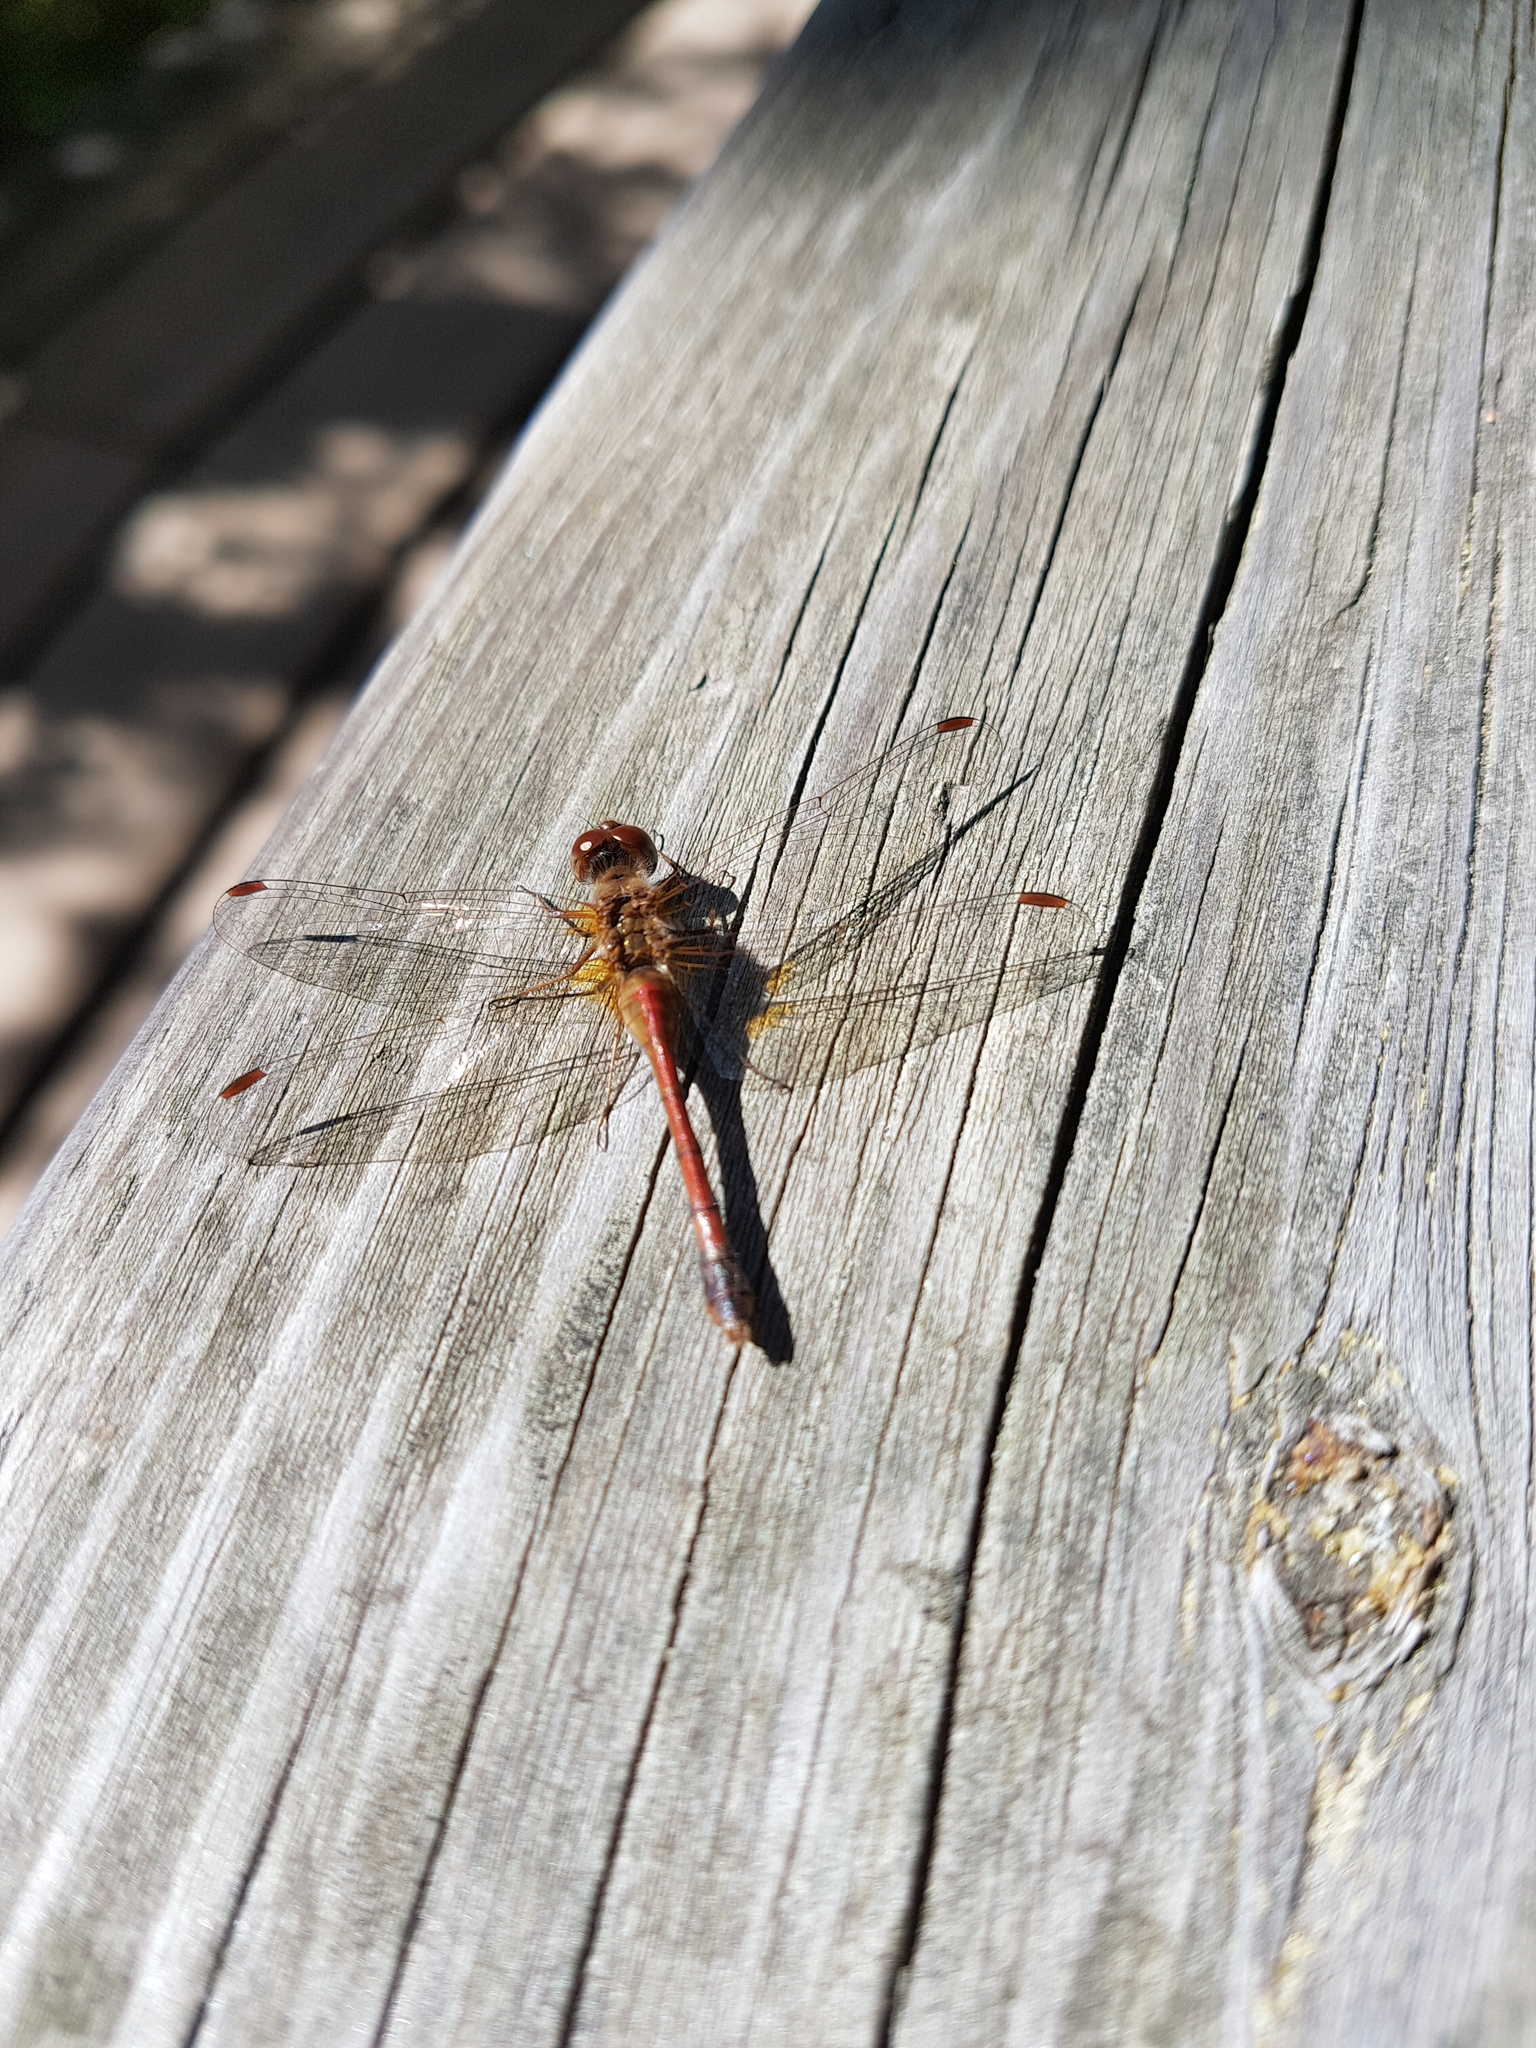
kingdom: Animalia
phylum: Arthropoda
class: Insecta
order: Odonata
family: Libellulidae
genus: Sympetrum
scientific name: Sympetrum vicinum
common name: Autumn meadowhawk
